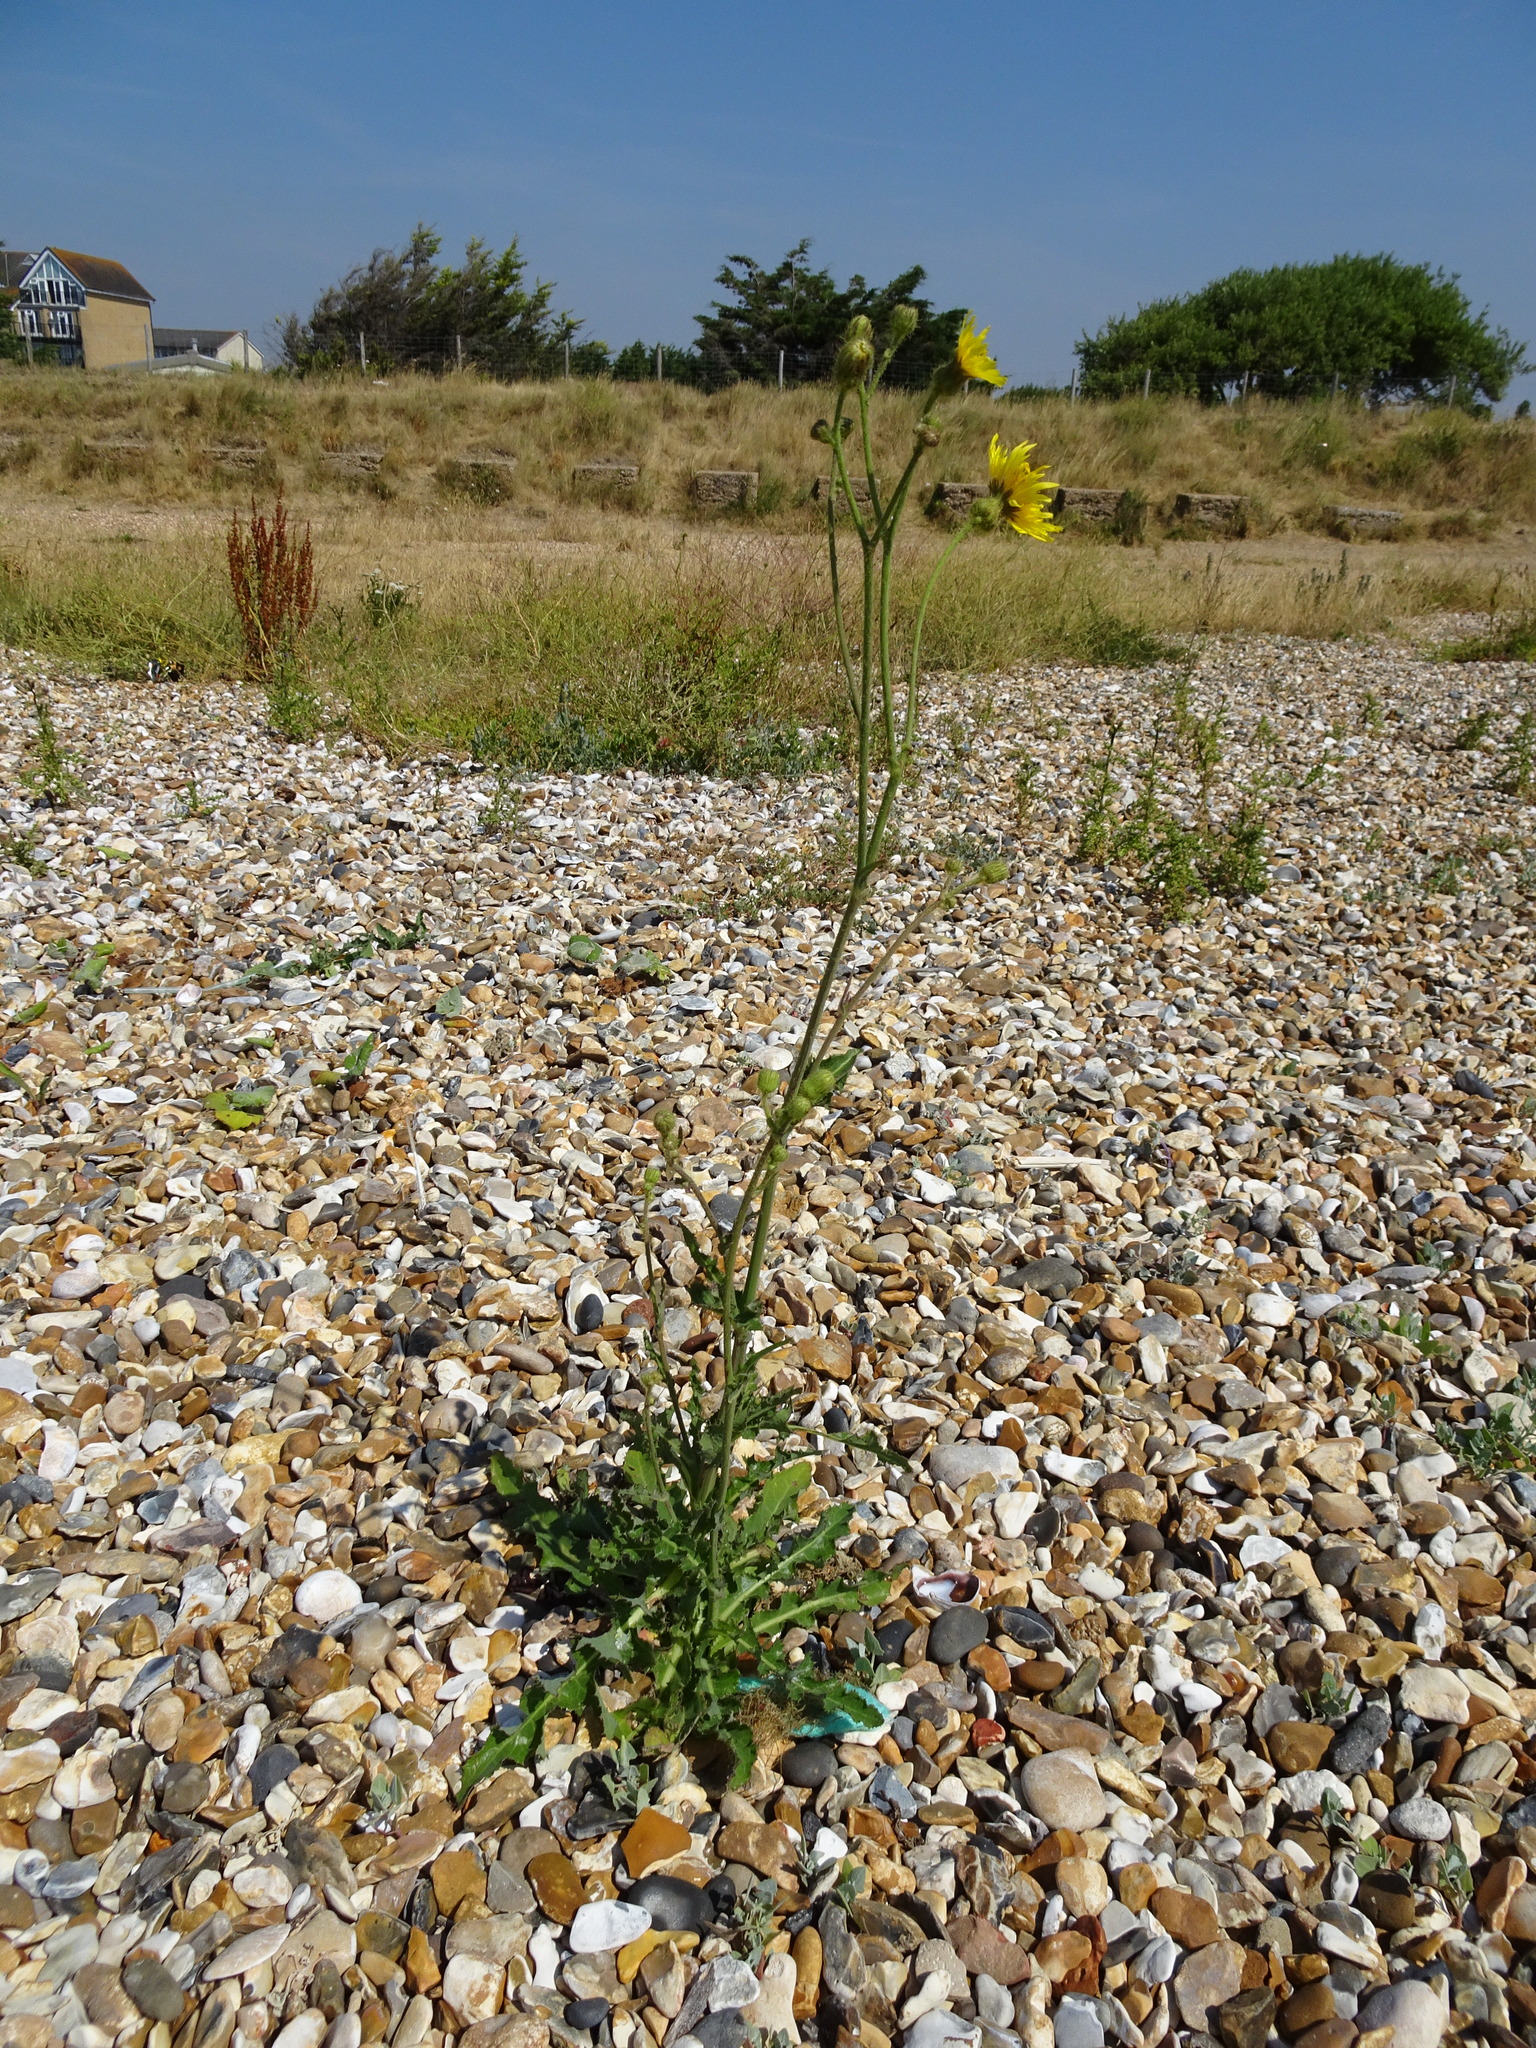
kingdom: Plantae
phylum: Tracheophyta
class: Magnoliopsida
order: Asterales
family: Asteraceae
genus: Sonchus
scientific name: Sonchus arvensis
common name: Perennial sow-thistle
